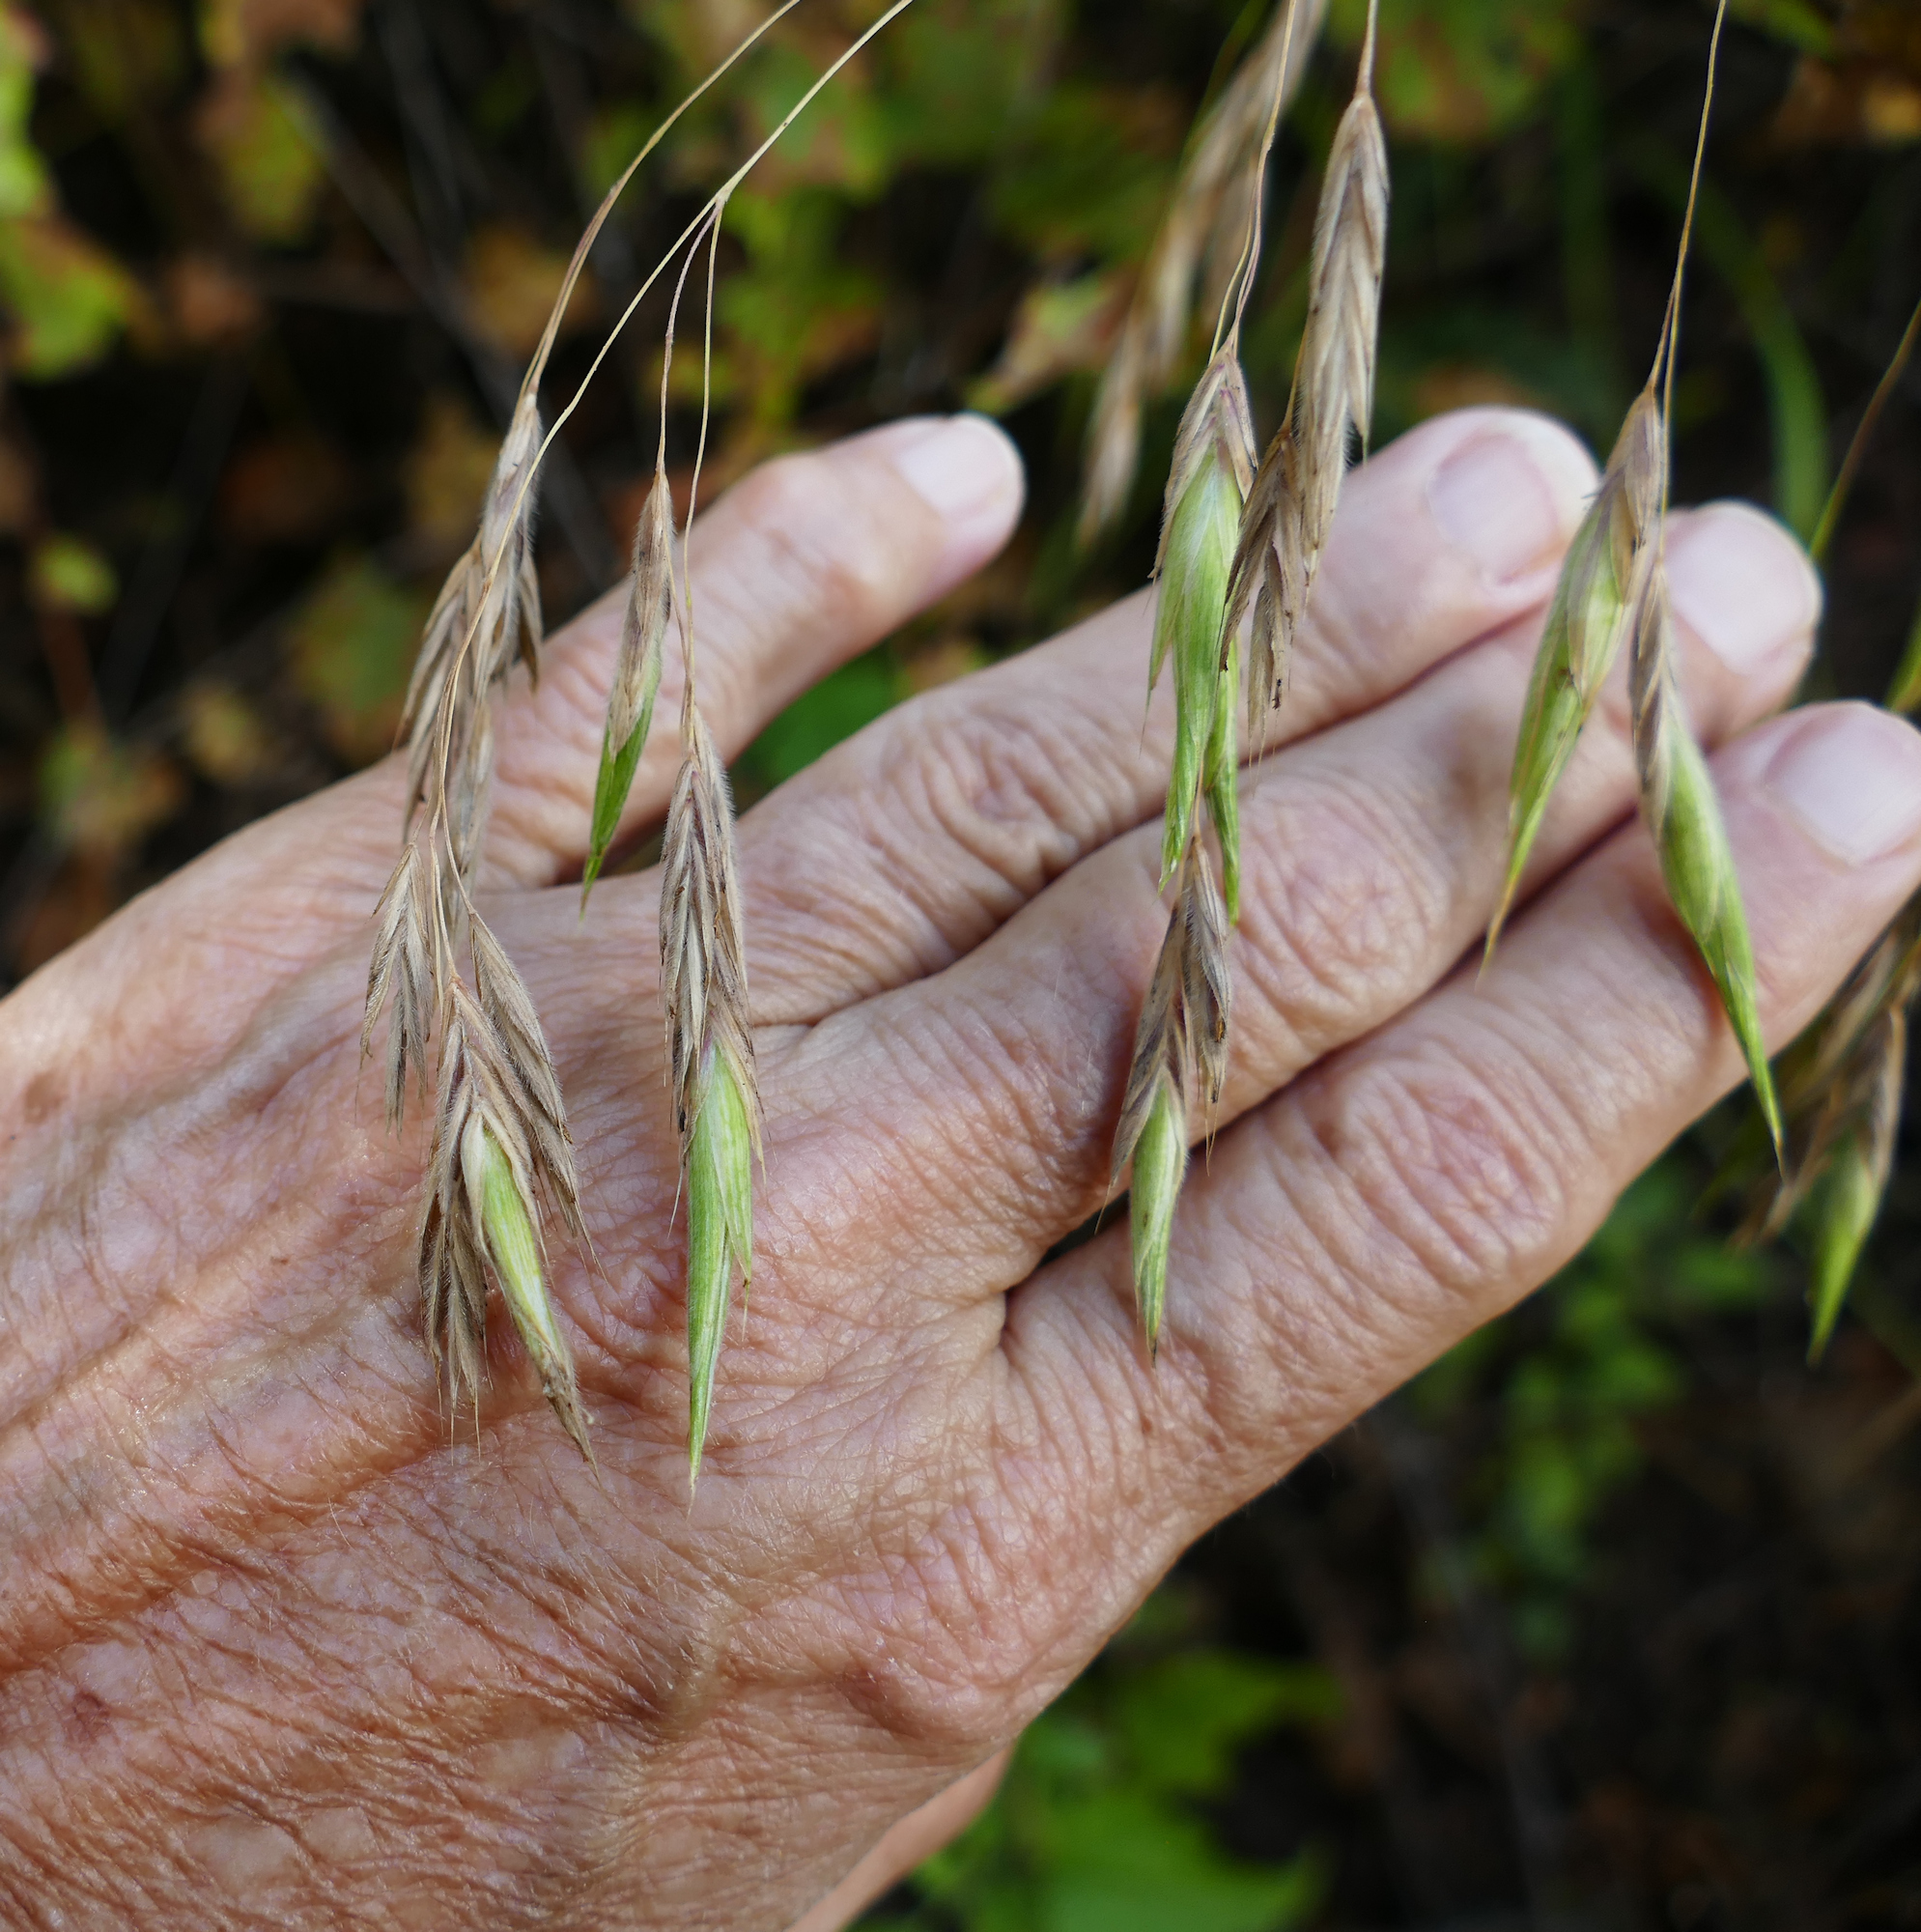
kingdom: Plantae
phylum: Tracheophyta
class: Liliopsida
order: Poales
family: Poaceae
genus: Bromus
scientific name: Bromus richardsonii
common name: Richardson's brome
